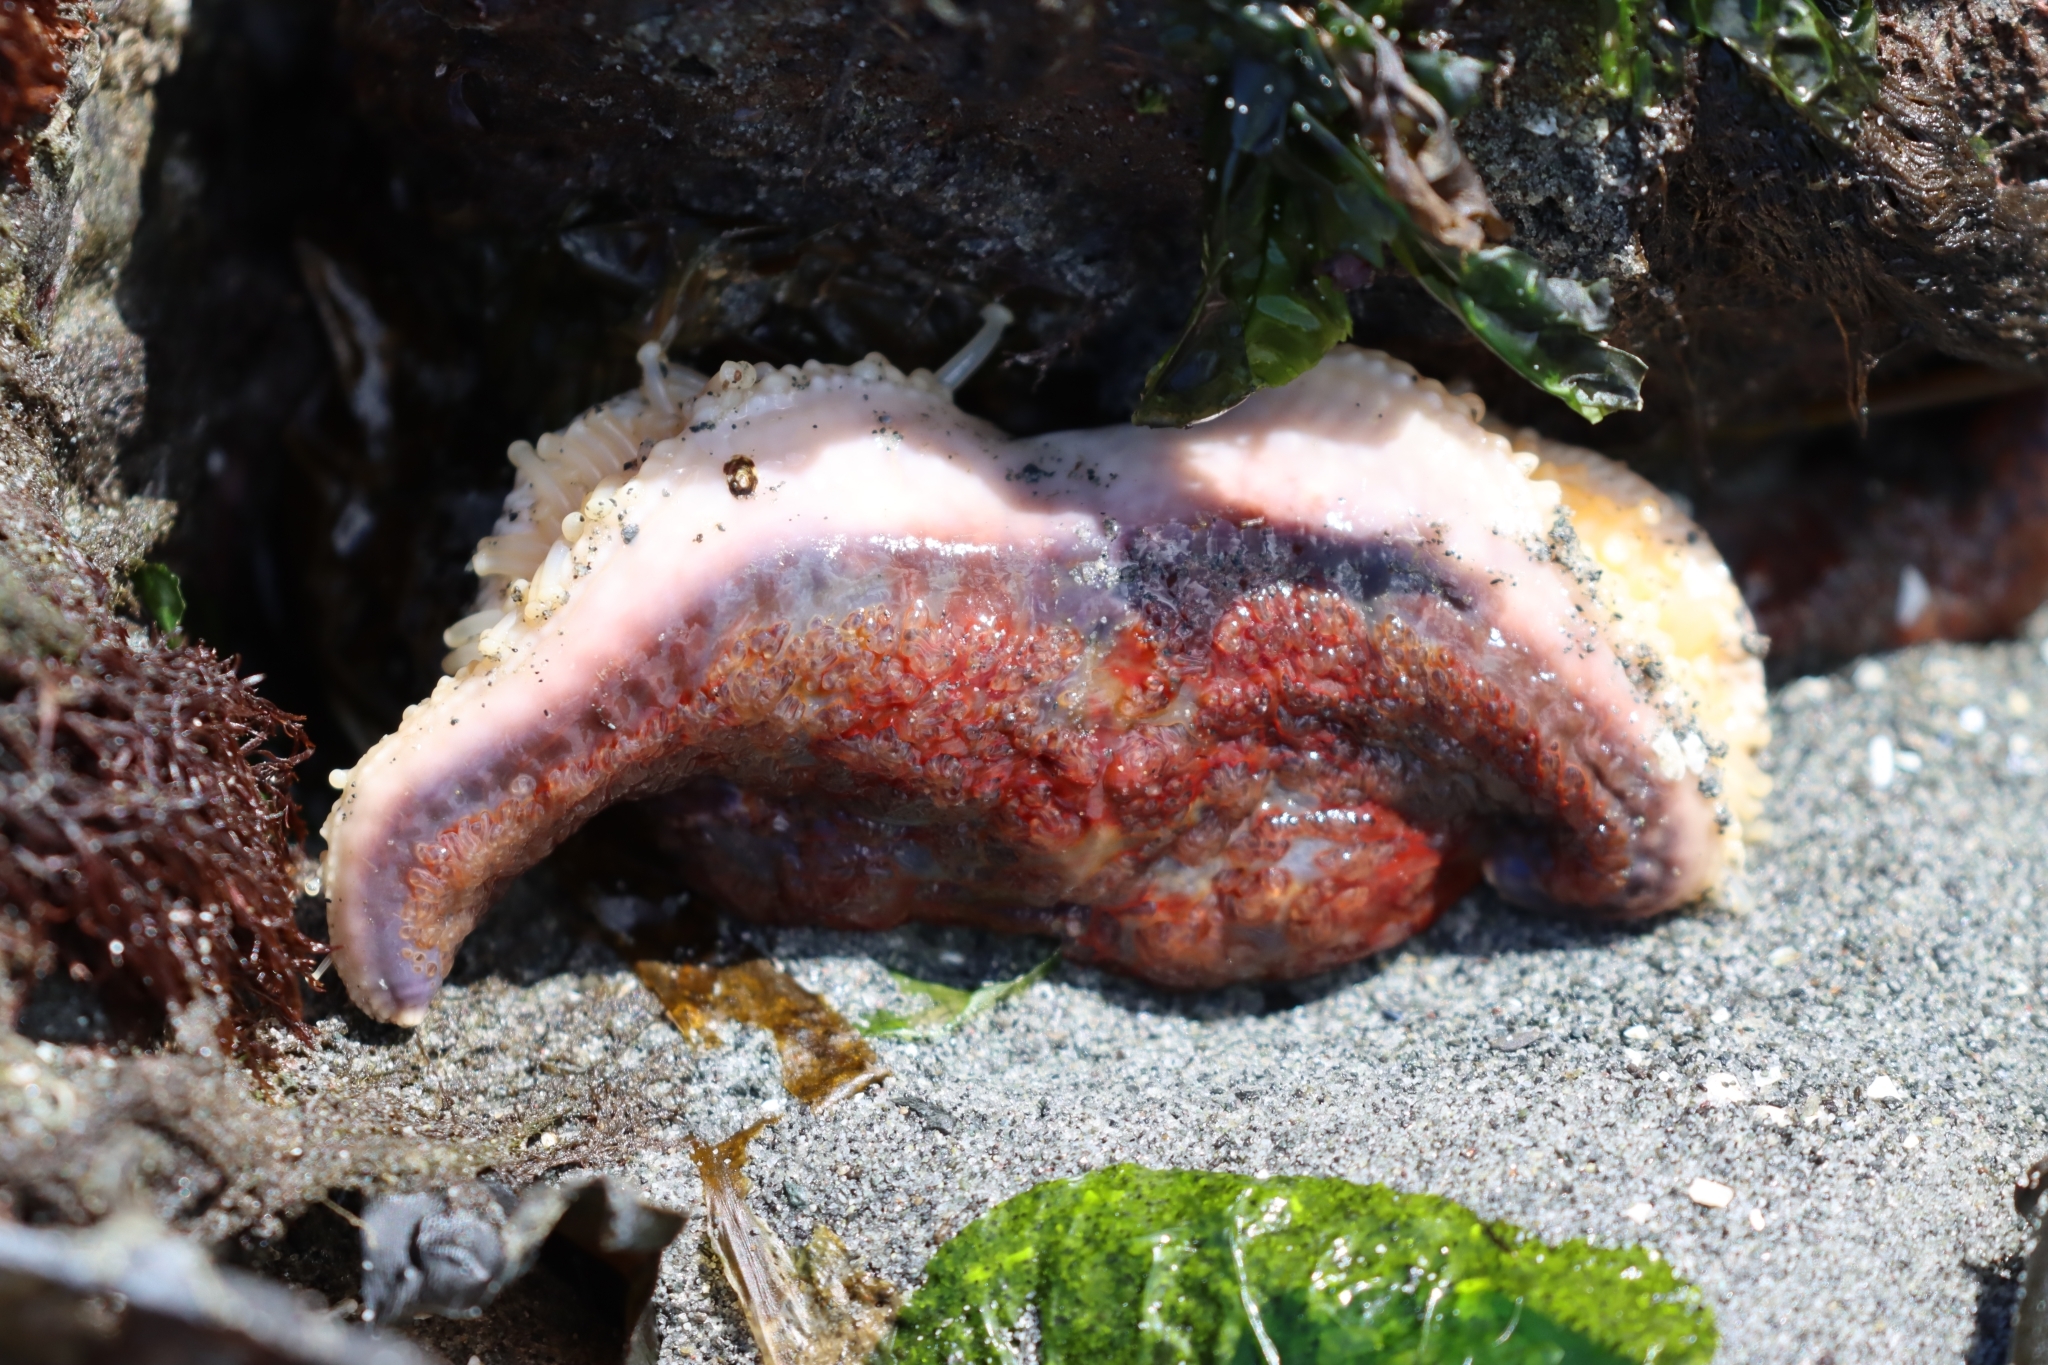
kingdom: Animalia
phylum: Echinodermata
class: Asteroidea
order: Valvatida
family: Asteropseidae
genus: Dermasterias
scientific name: Dermasterias imbricata
